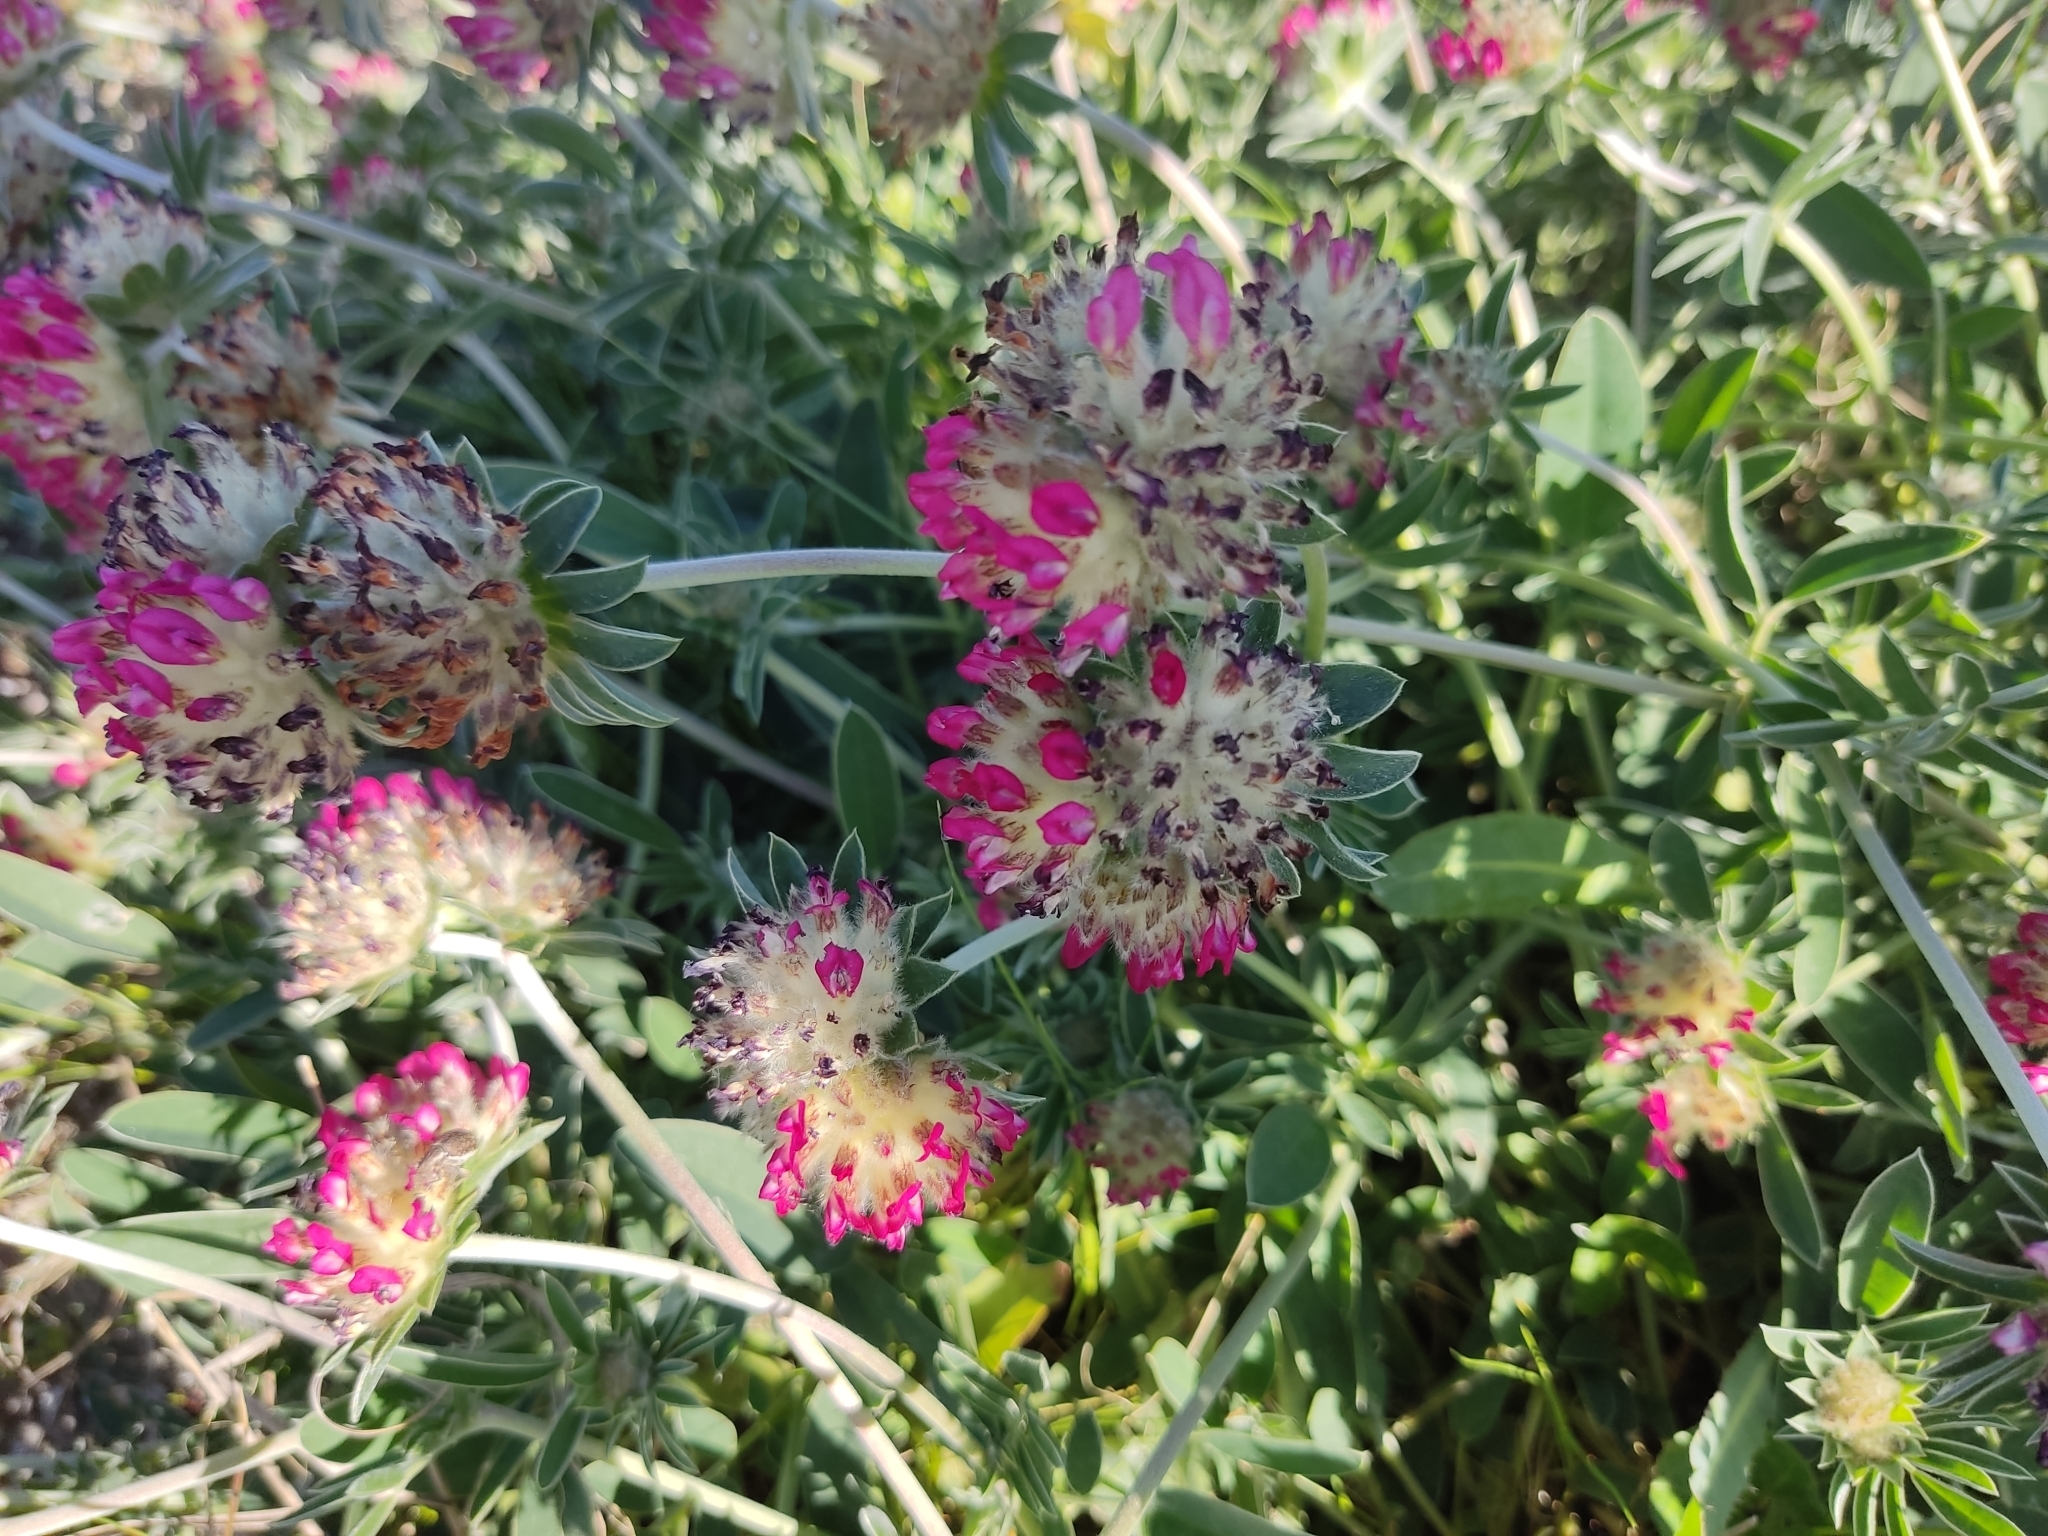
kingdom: Plantae
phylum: Tracheophyta
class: Magnoliopsida
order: Fabales
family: Fabaceae
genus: Anthyllis
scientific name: Anthyllis vulneraria
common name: Kidney vetch
